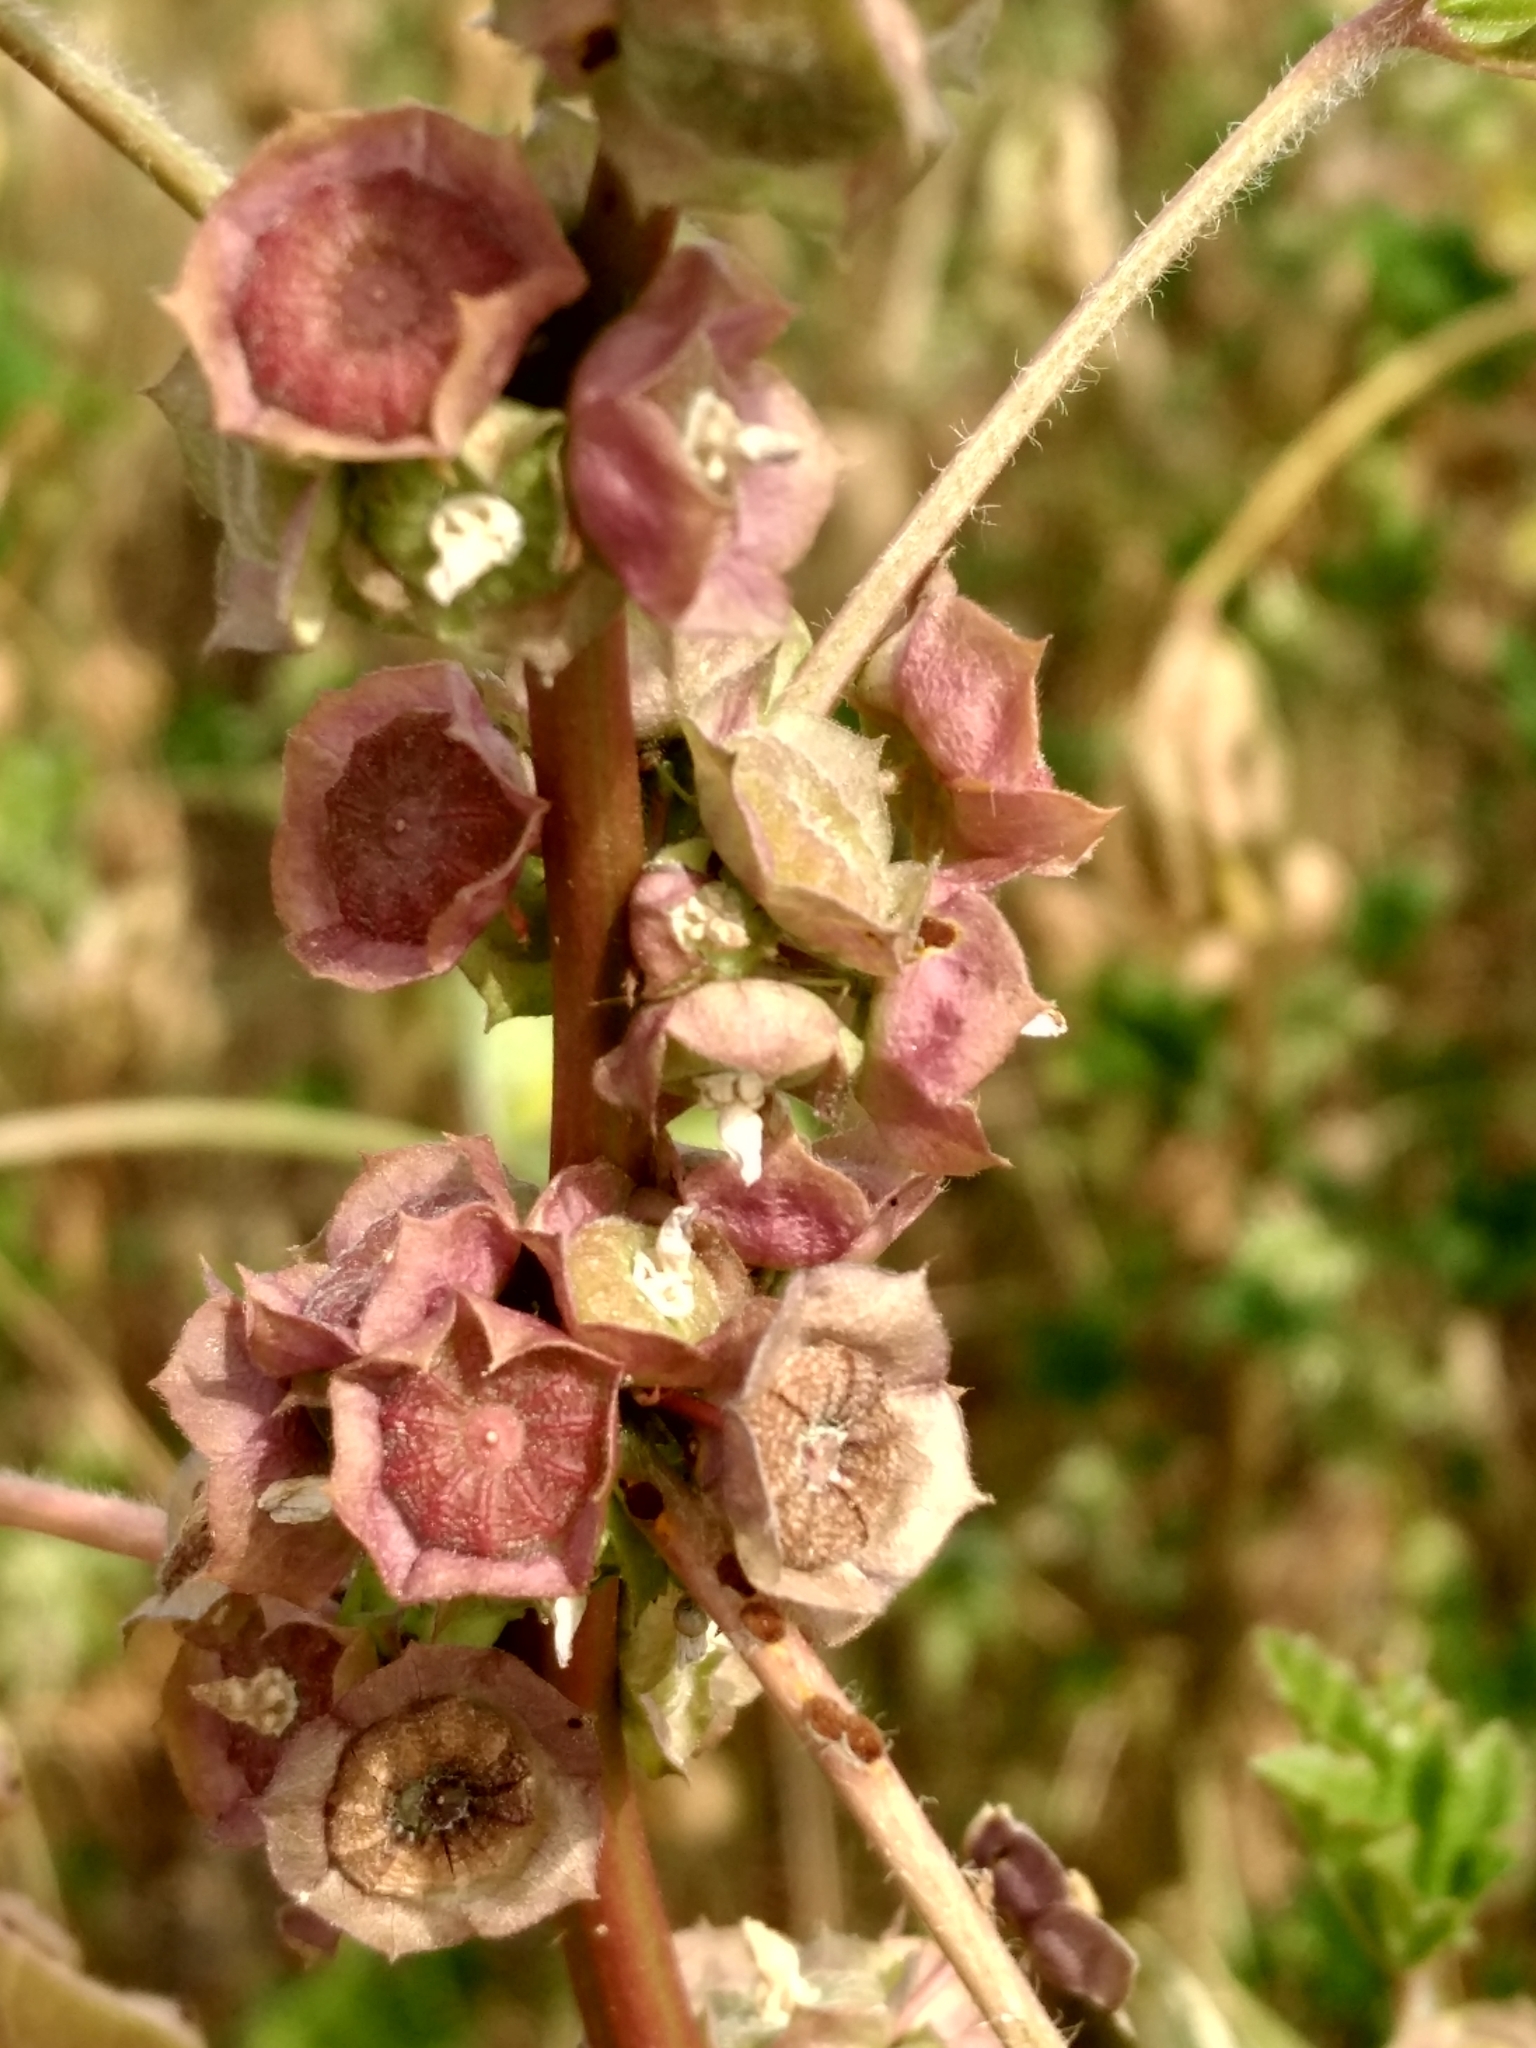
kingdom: Plantae
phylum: Tracheophyta
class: Magnoliopsida
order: Malvales
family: Malvaceae
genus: Malva
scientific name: Malva parviflora
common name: Least mallow
